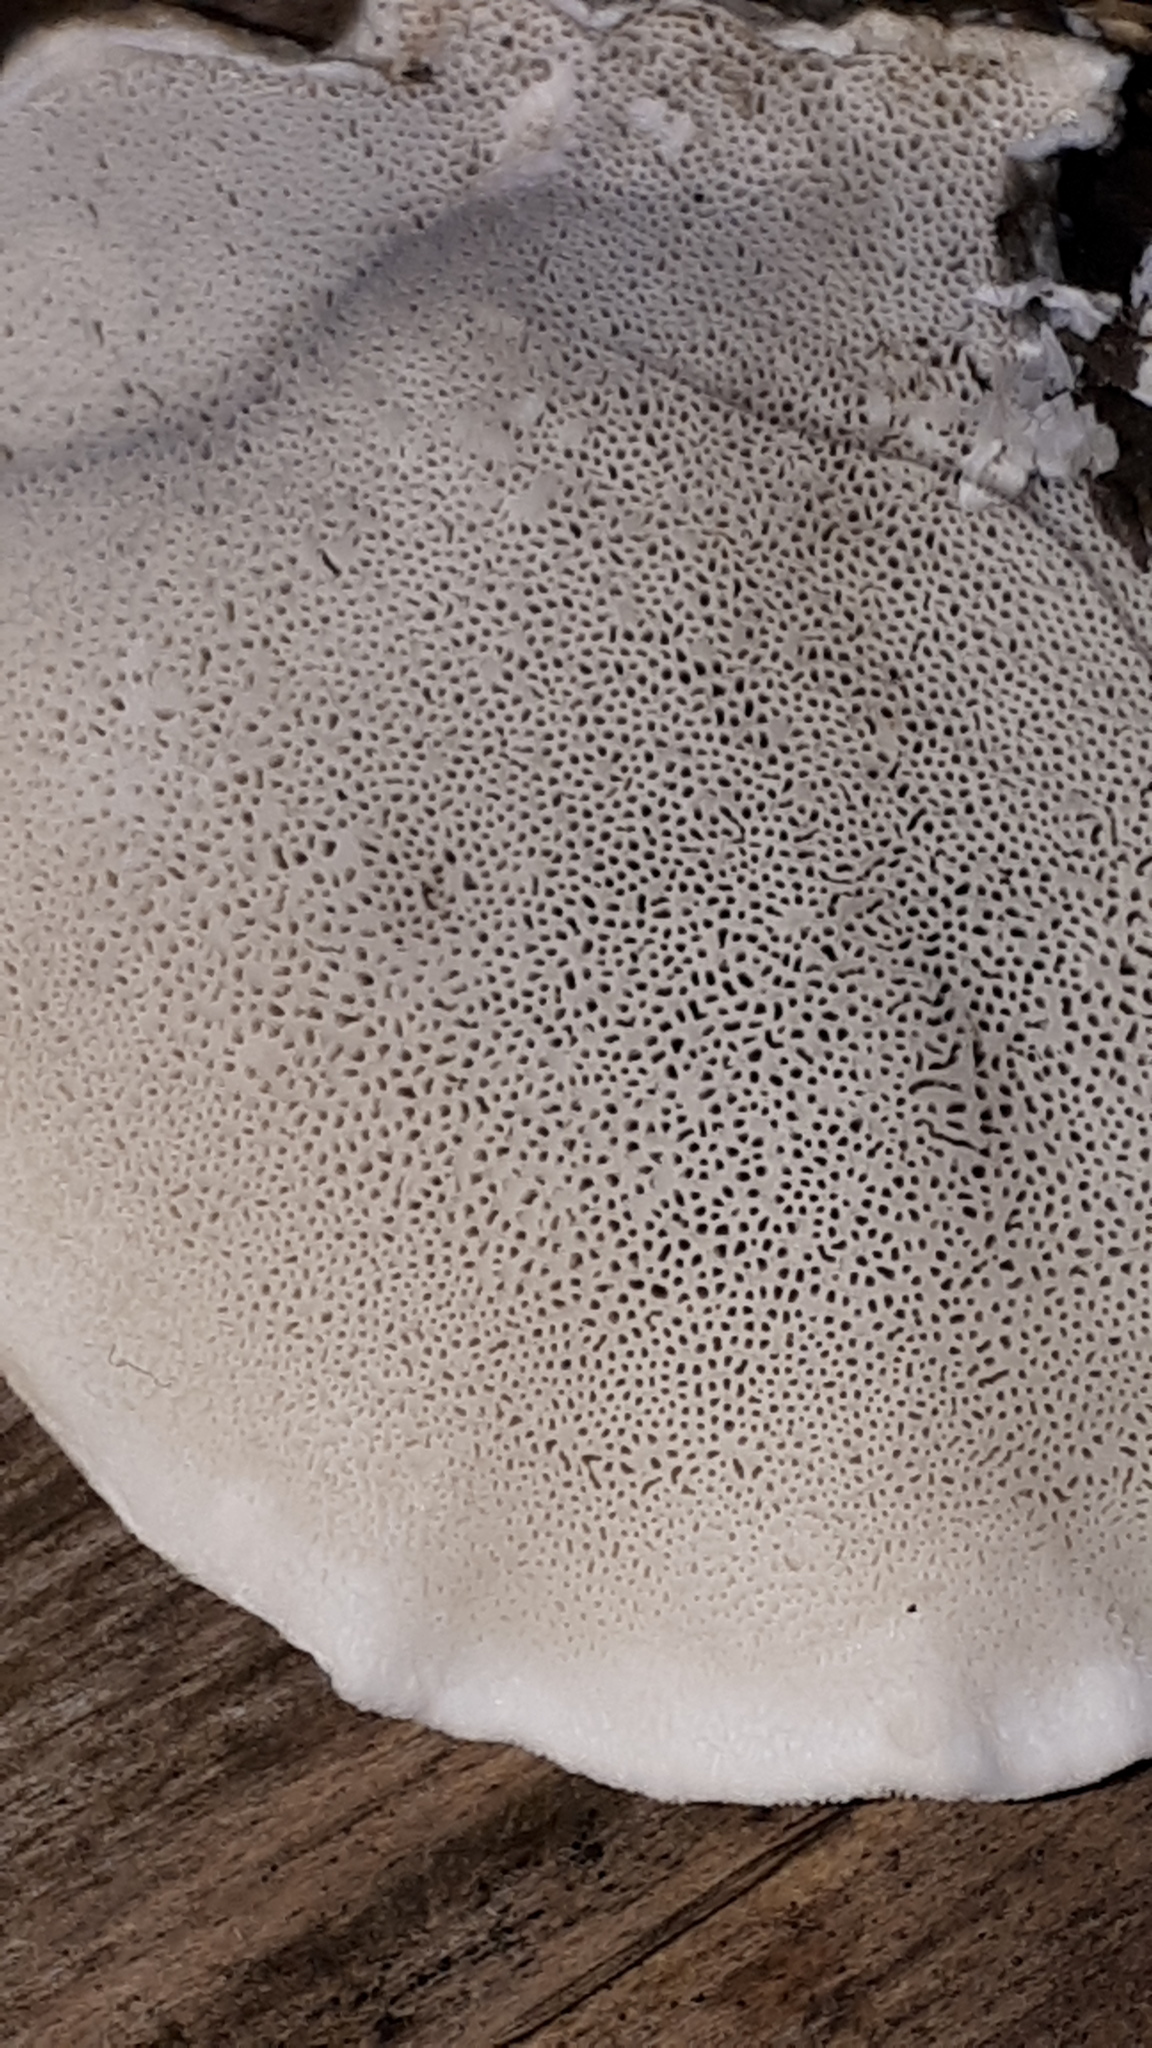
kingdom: Fungi
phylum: Basidiomycota
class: Agaricomycetes
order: Polyporales
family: Polyporaceae
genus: Cyanosporus
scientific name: Cyanosporus caesius
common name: Blue cheese polypore
